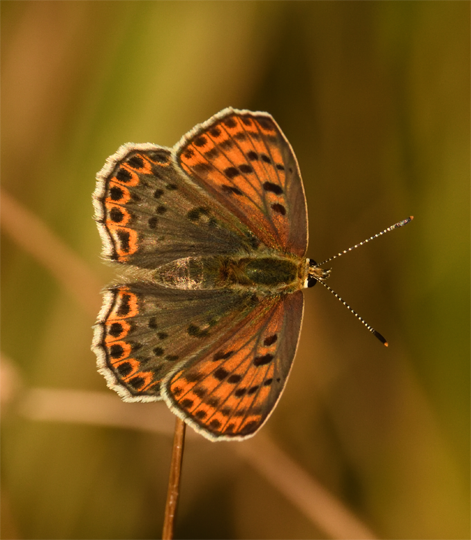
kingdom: Animalia
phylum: Arthropoda
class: Insecta
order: Lepidoptera
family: Lycaenidae
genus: Loweia
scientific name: Loweia tityrus
